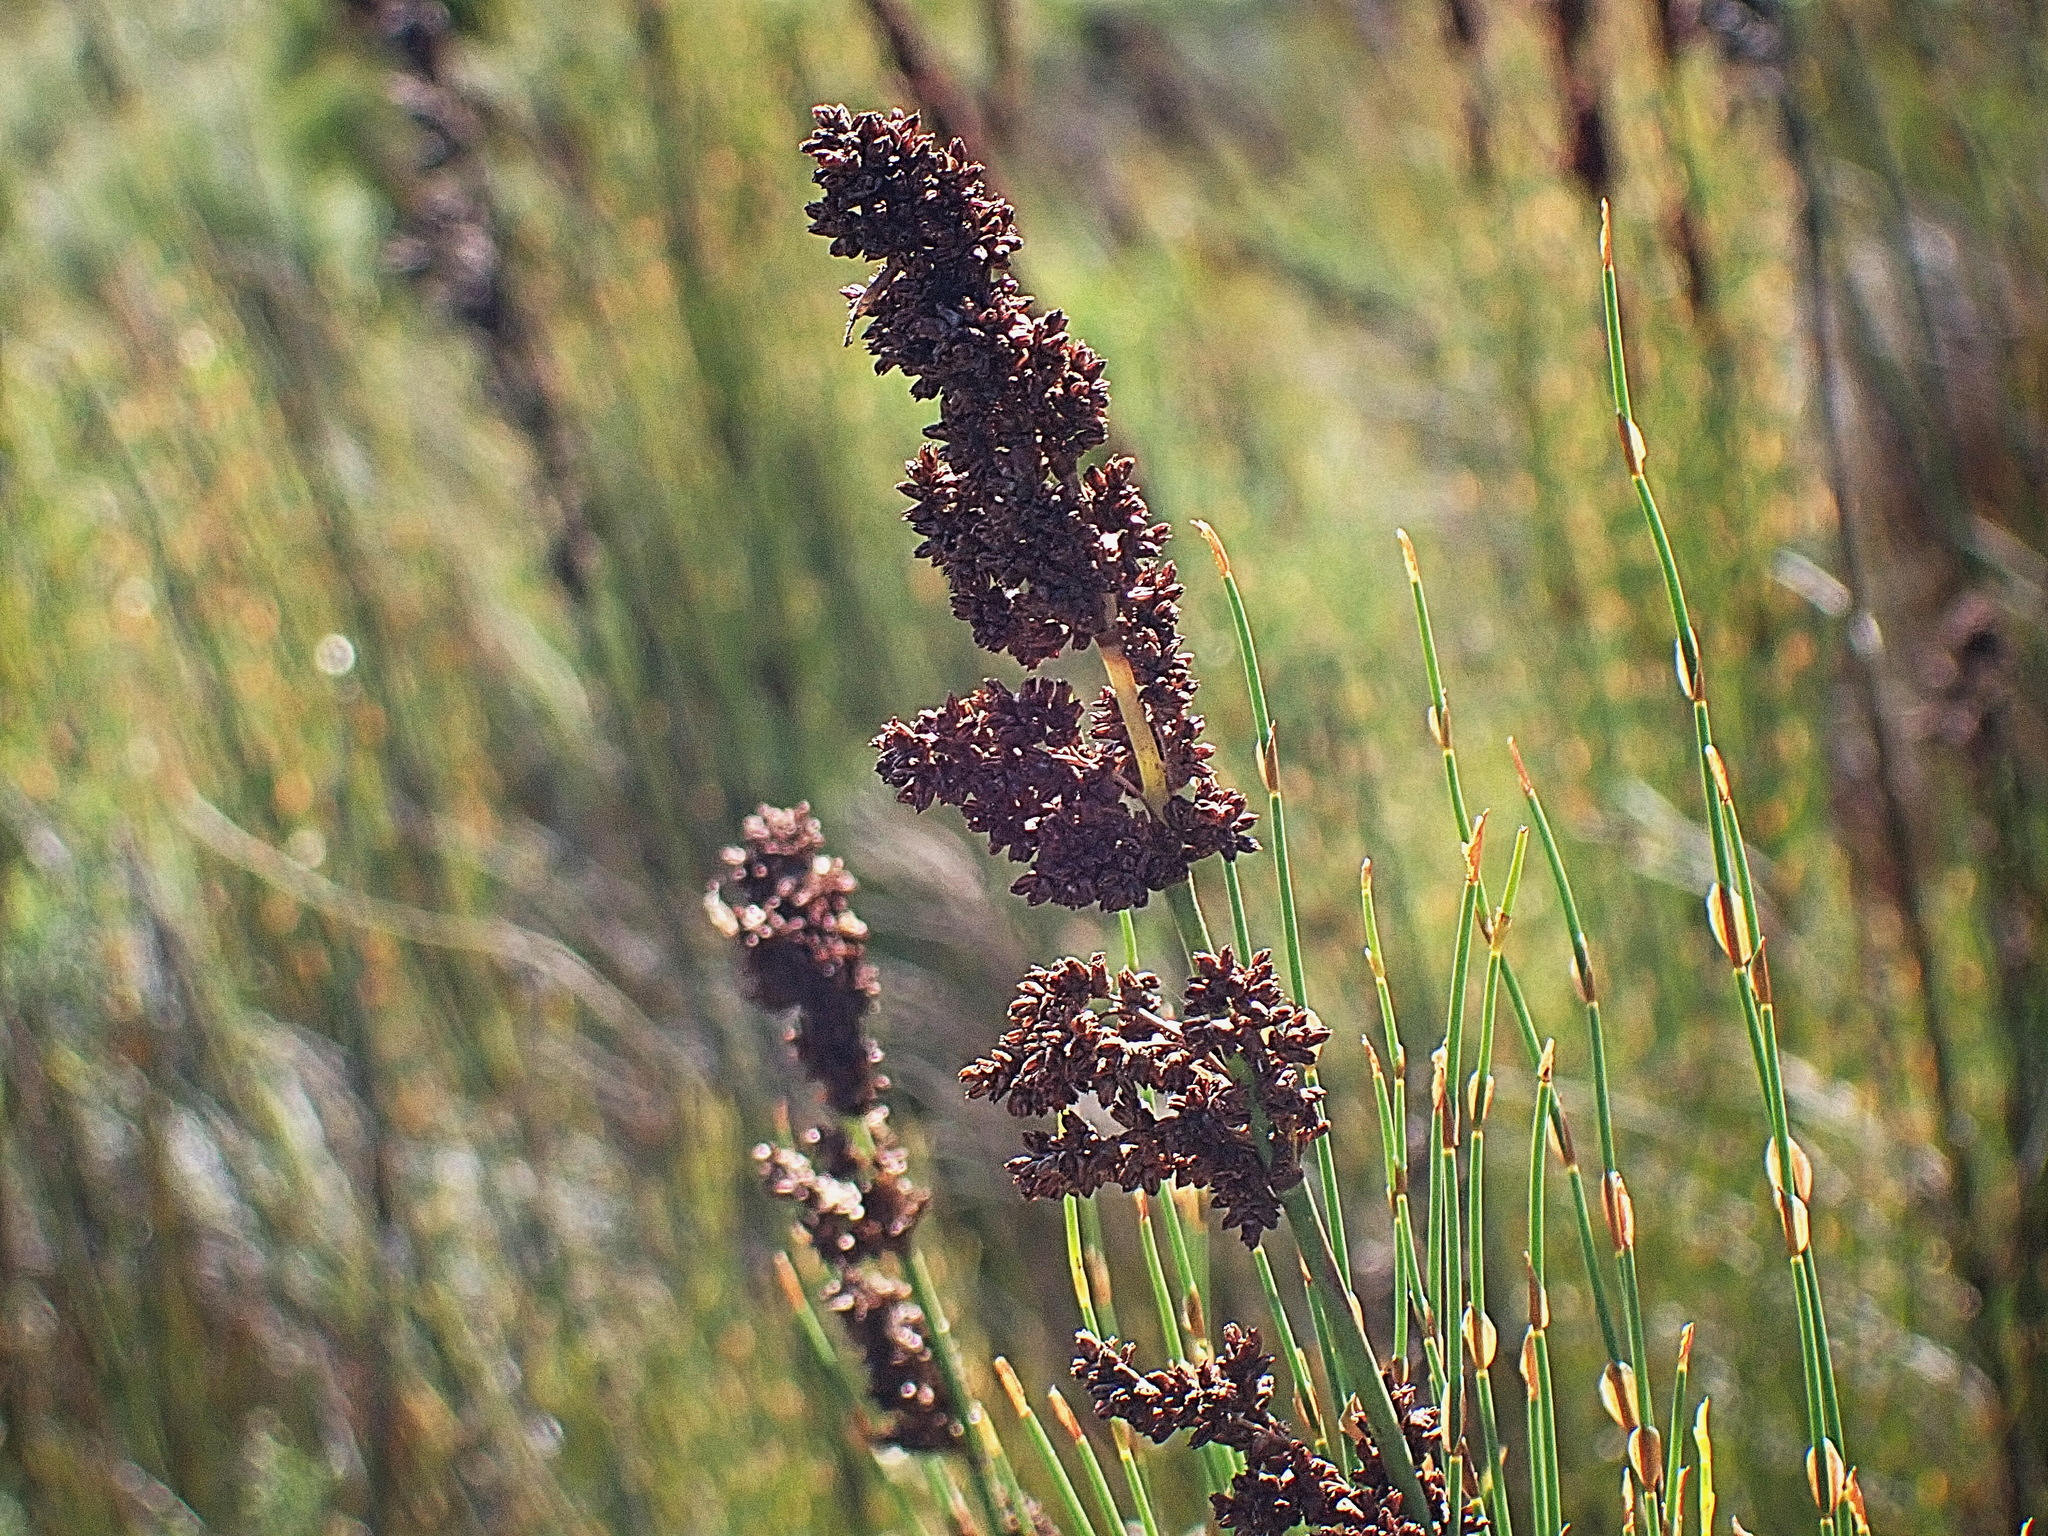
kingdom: Plantae
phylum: Tracheophyta
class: Liliopsida
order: Poales
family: Restionaceae
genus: Elegia
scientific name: Elegia capensis
